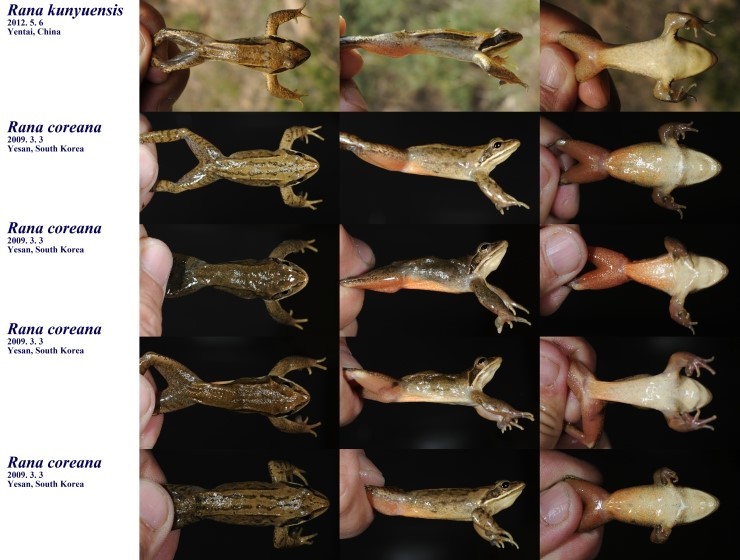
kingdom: Animalia
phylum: Chordata
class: Amphibia
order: Anura
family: Ranidae
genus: Rana
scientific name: Rana coreana
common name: Korean brown frog
